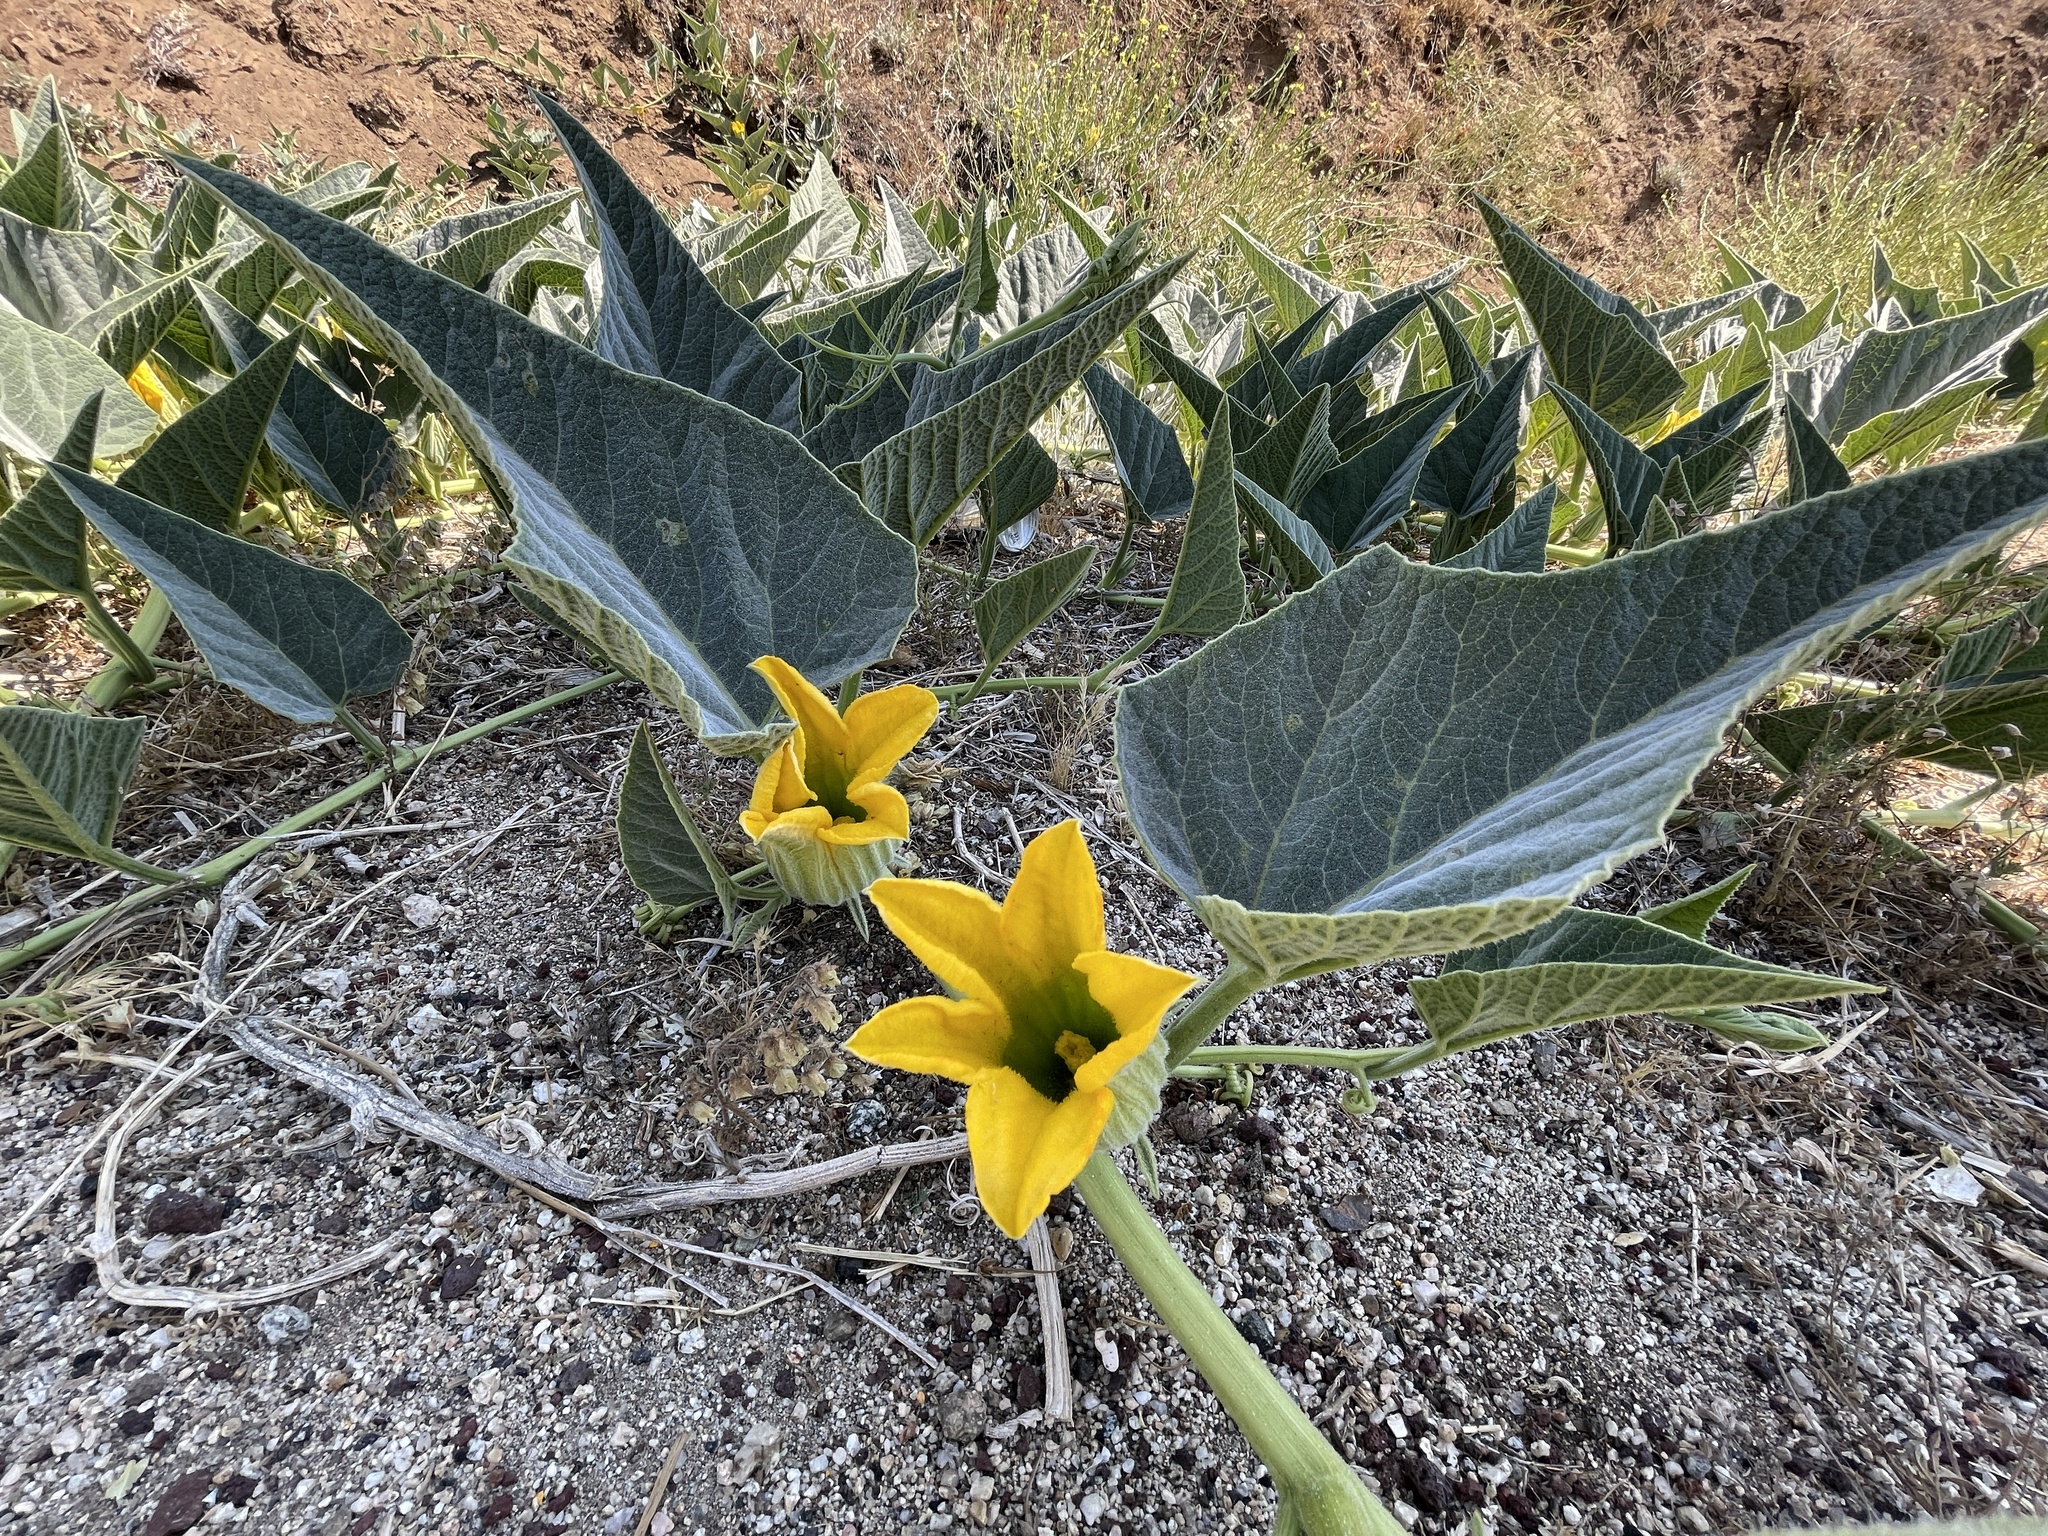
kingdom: Plantae
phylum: Tracheophyta
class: Magnoliopsida
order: Cucurbitales
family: Cucurbitaceae
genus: Cucurbita
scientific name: Cucurbita foetidissima
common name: Buffalo gourd
